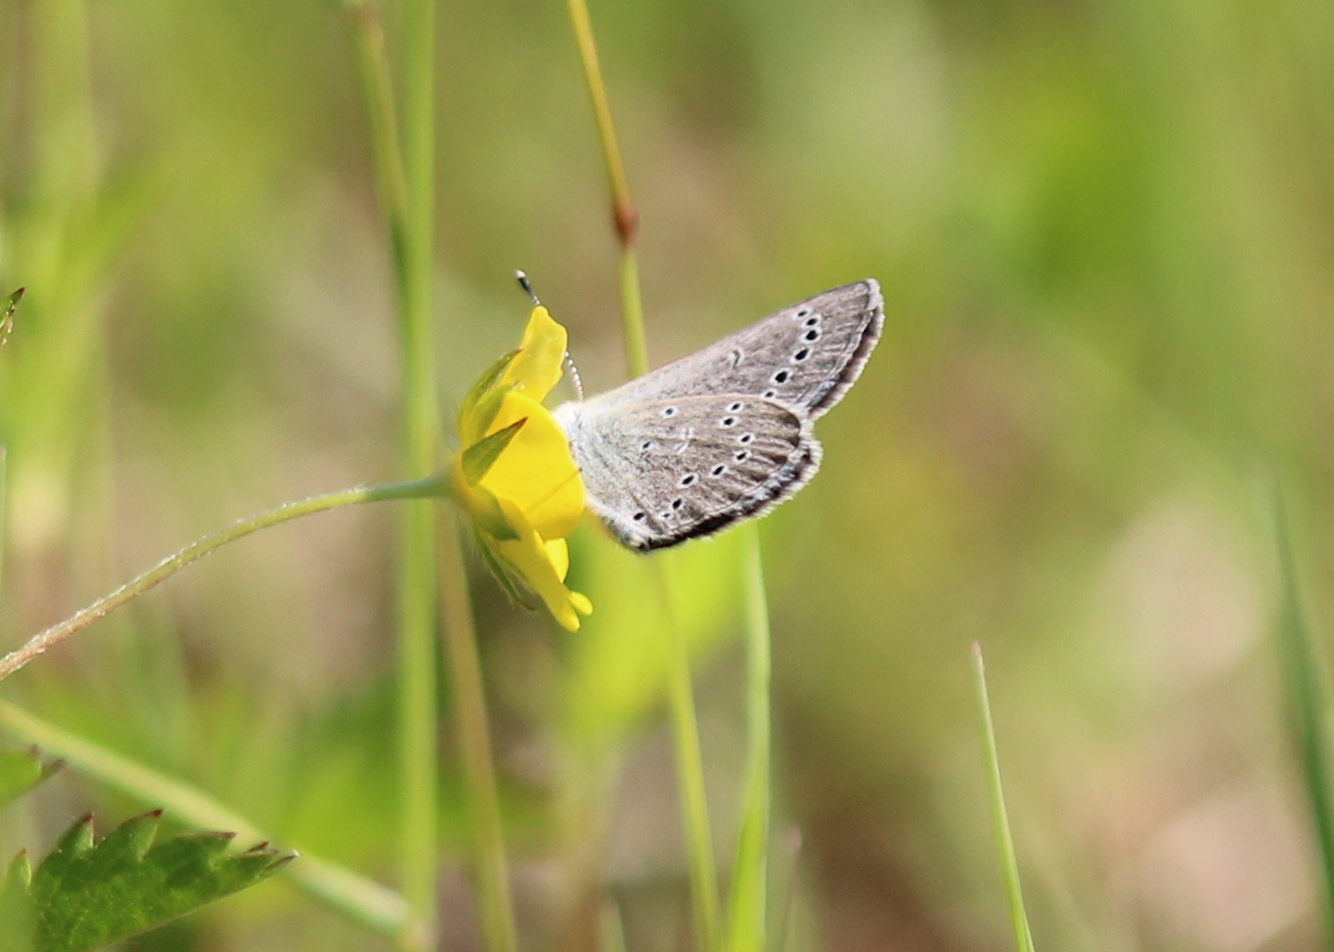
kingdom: Animalia
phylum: Arthropoda
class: Insecta
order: Lepidoptera
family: Lycaenidae
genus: Glaucopsyche
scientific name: Glaucopsyche lygdamus
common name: Silvery blue
